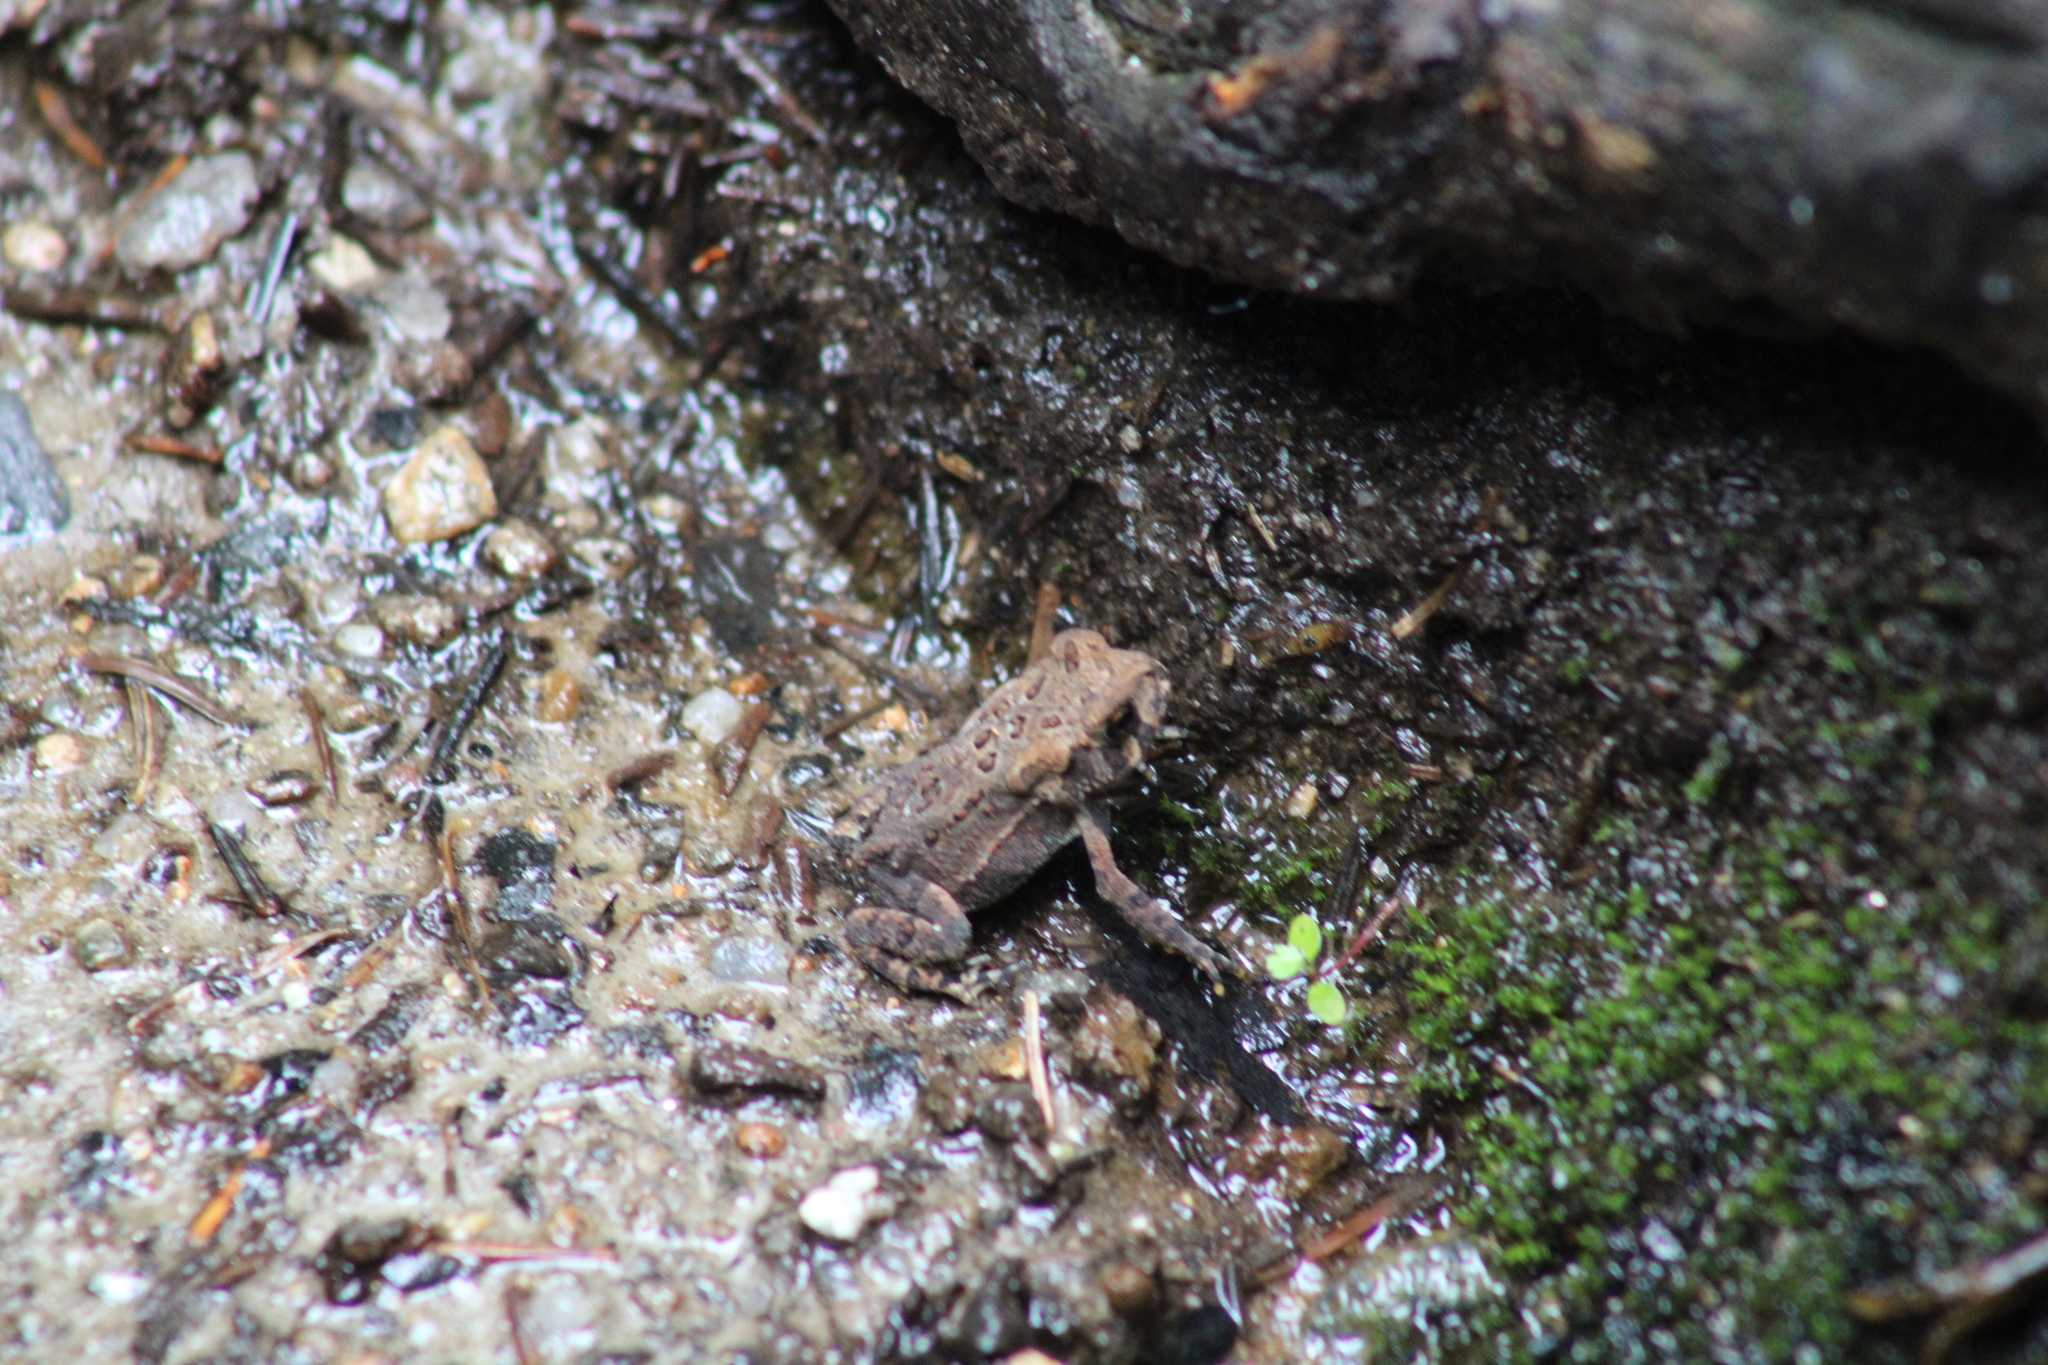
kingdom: Animalia
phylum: Chordata
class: Amphibia
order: Anura
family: Bufonidae
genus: Anaxyrus
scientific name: Anaxyrus americanus
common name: American toad
